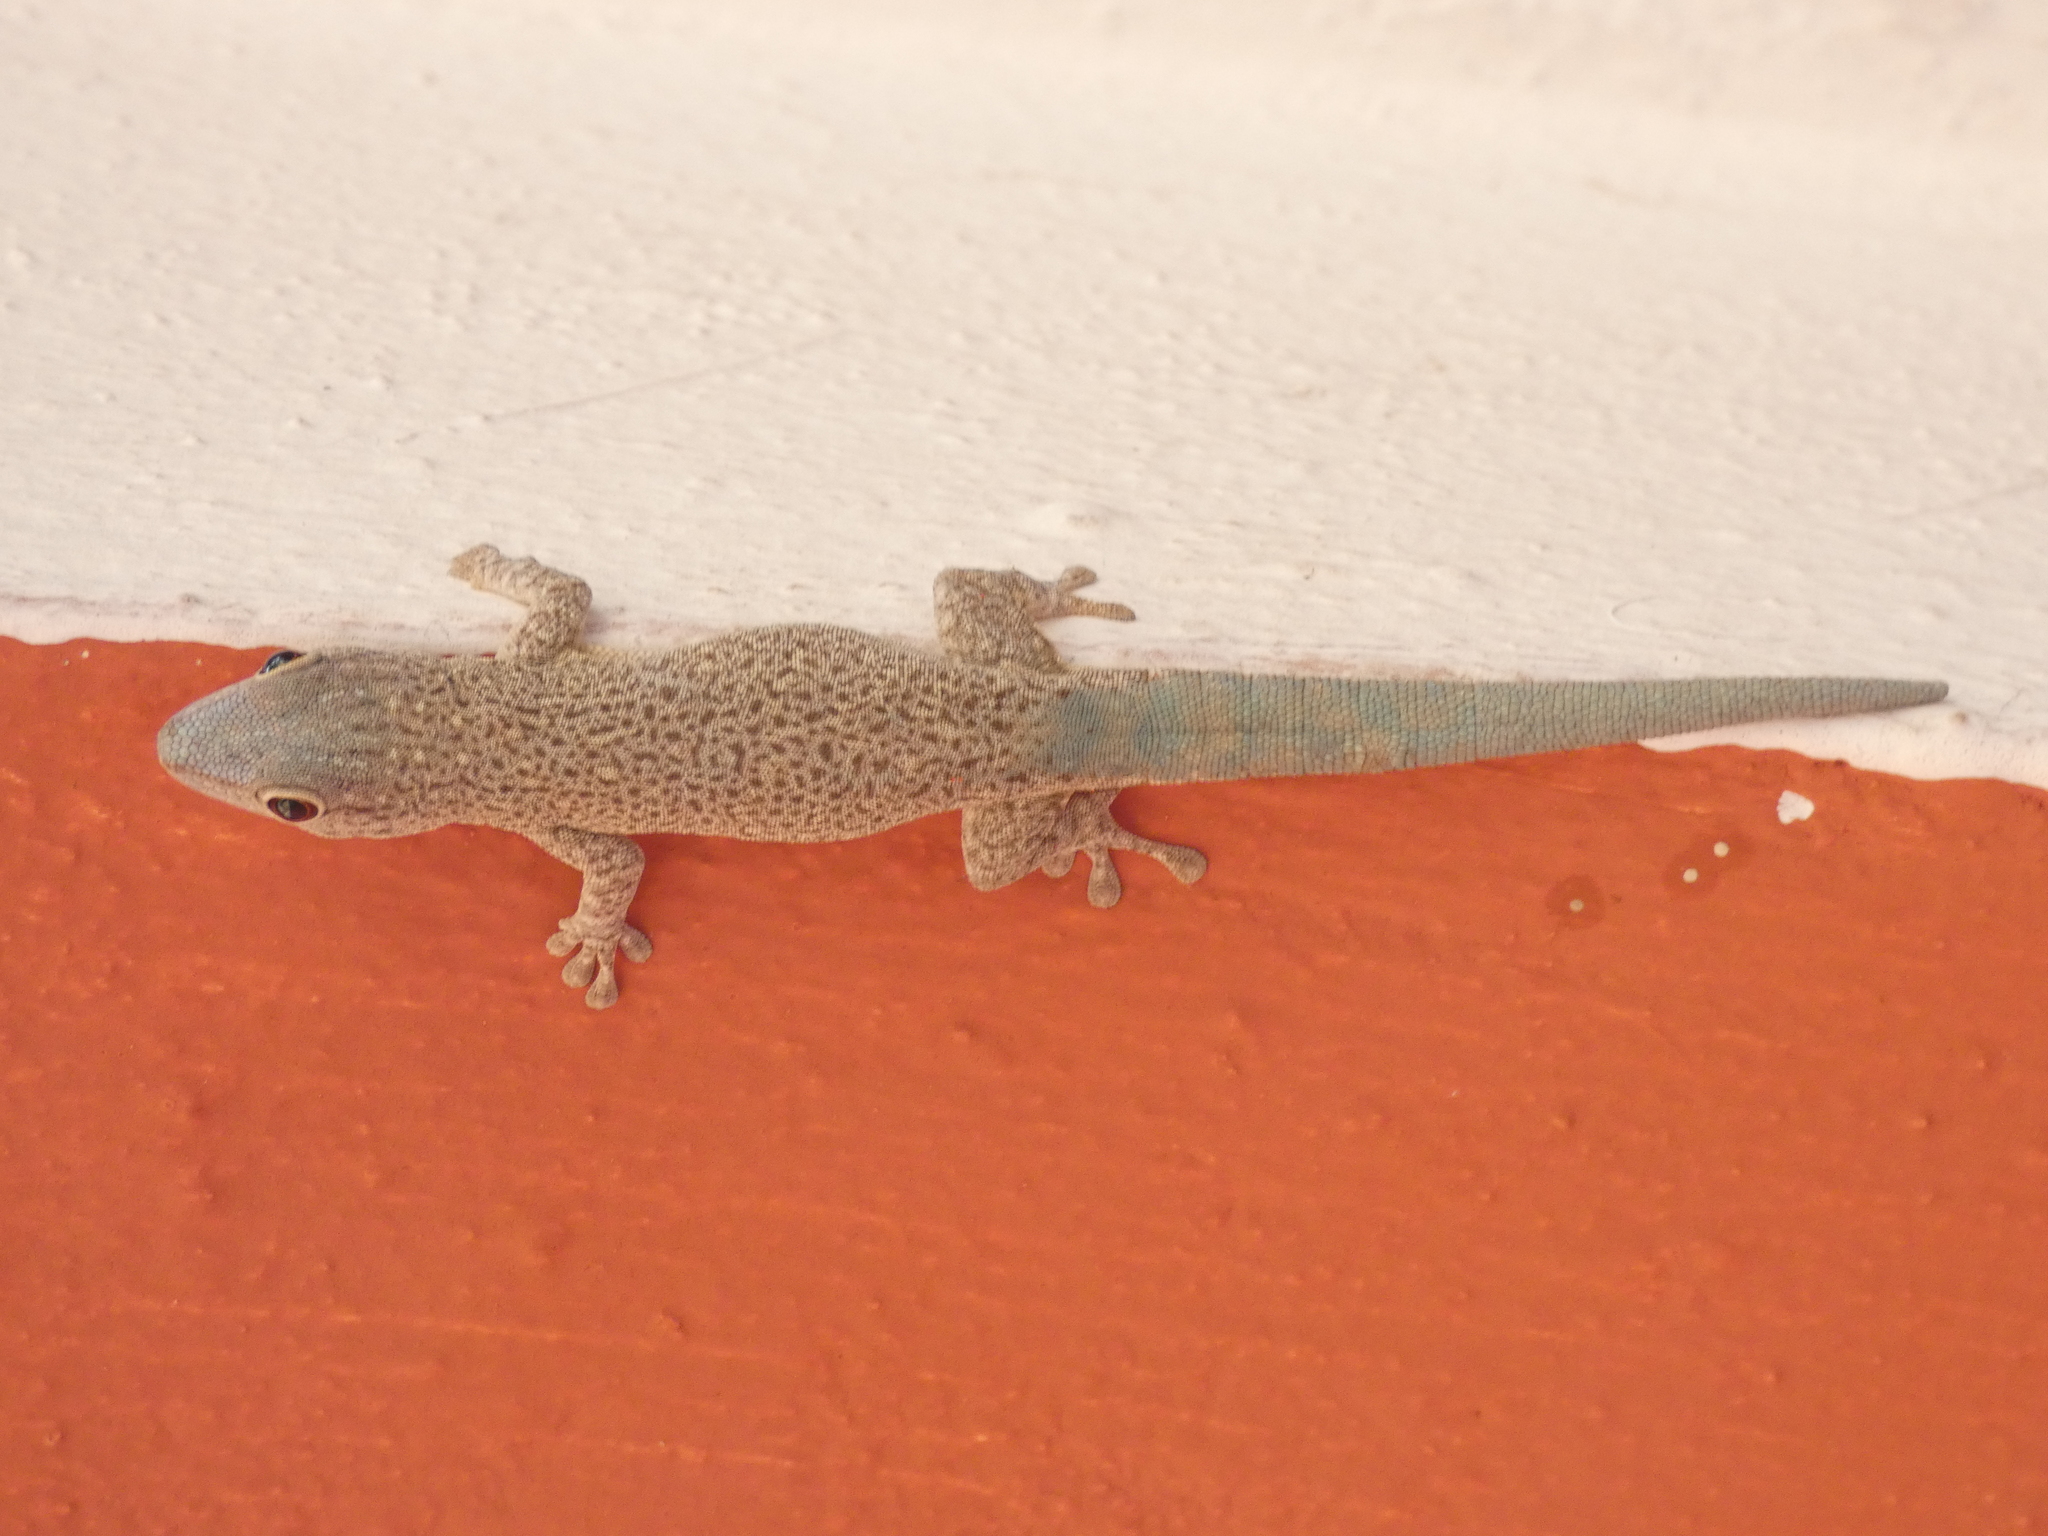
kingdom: Animalia
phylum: Chordata
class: Squamata
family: Gekkonidae
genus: Phelsuma
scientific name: Phelsuma mutabilis
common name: Thick tail gecko
